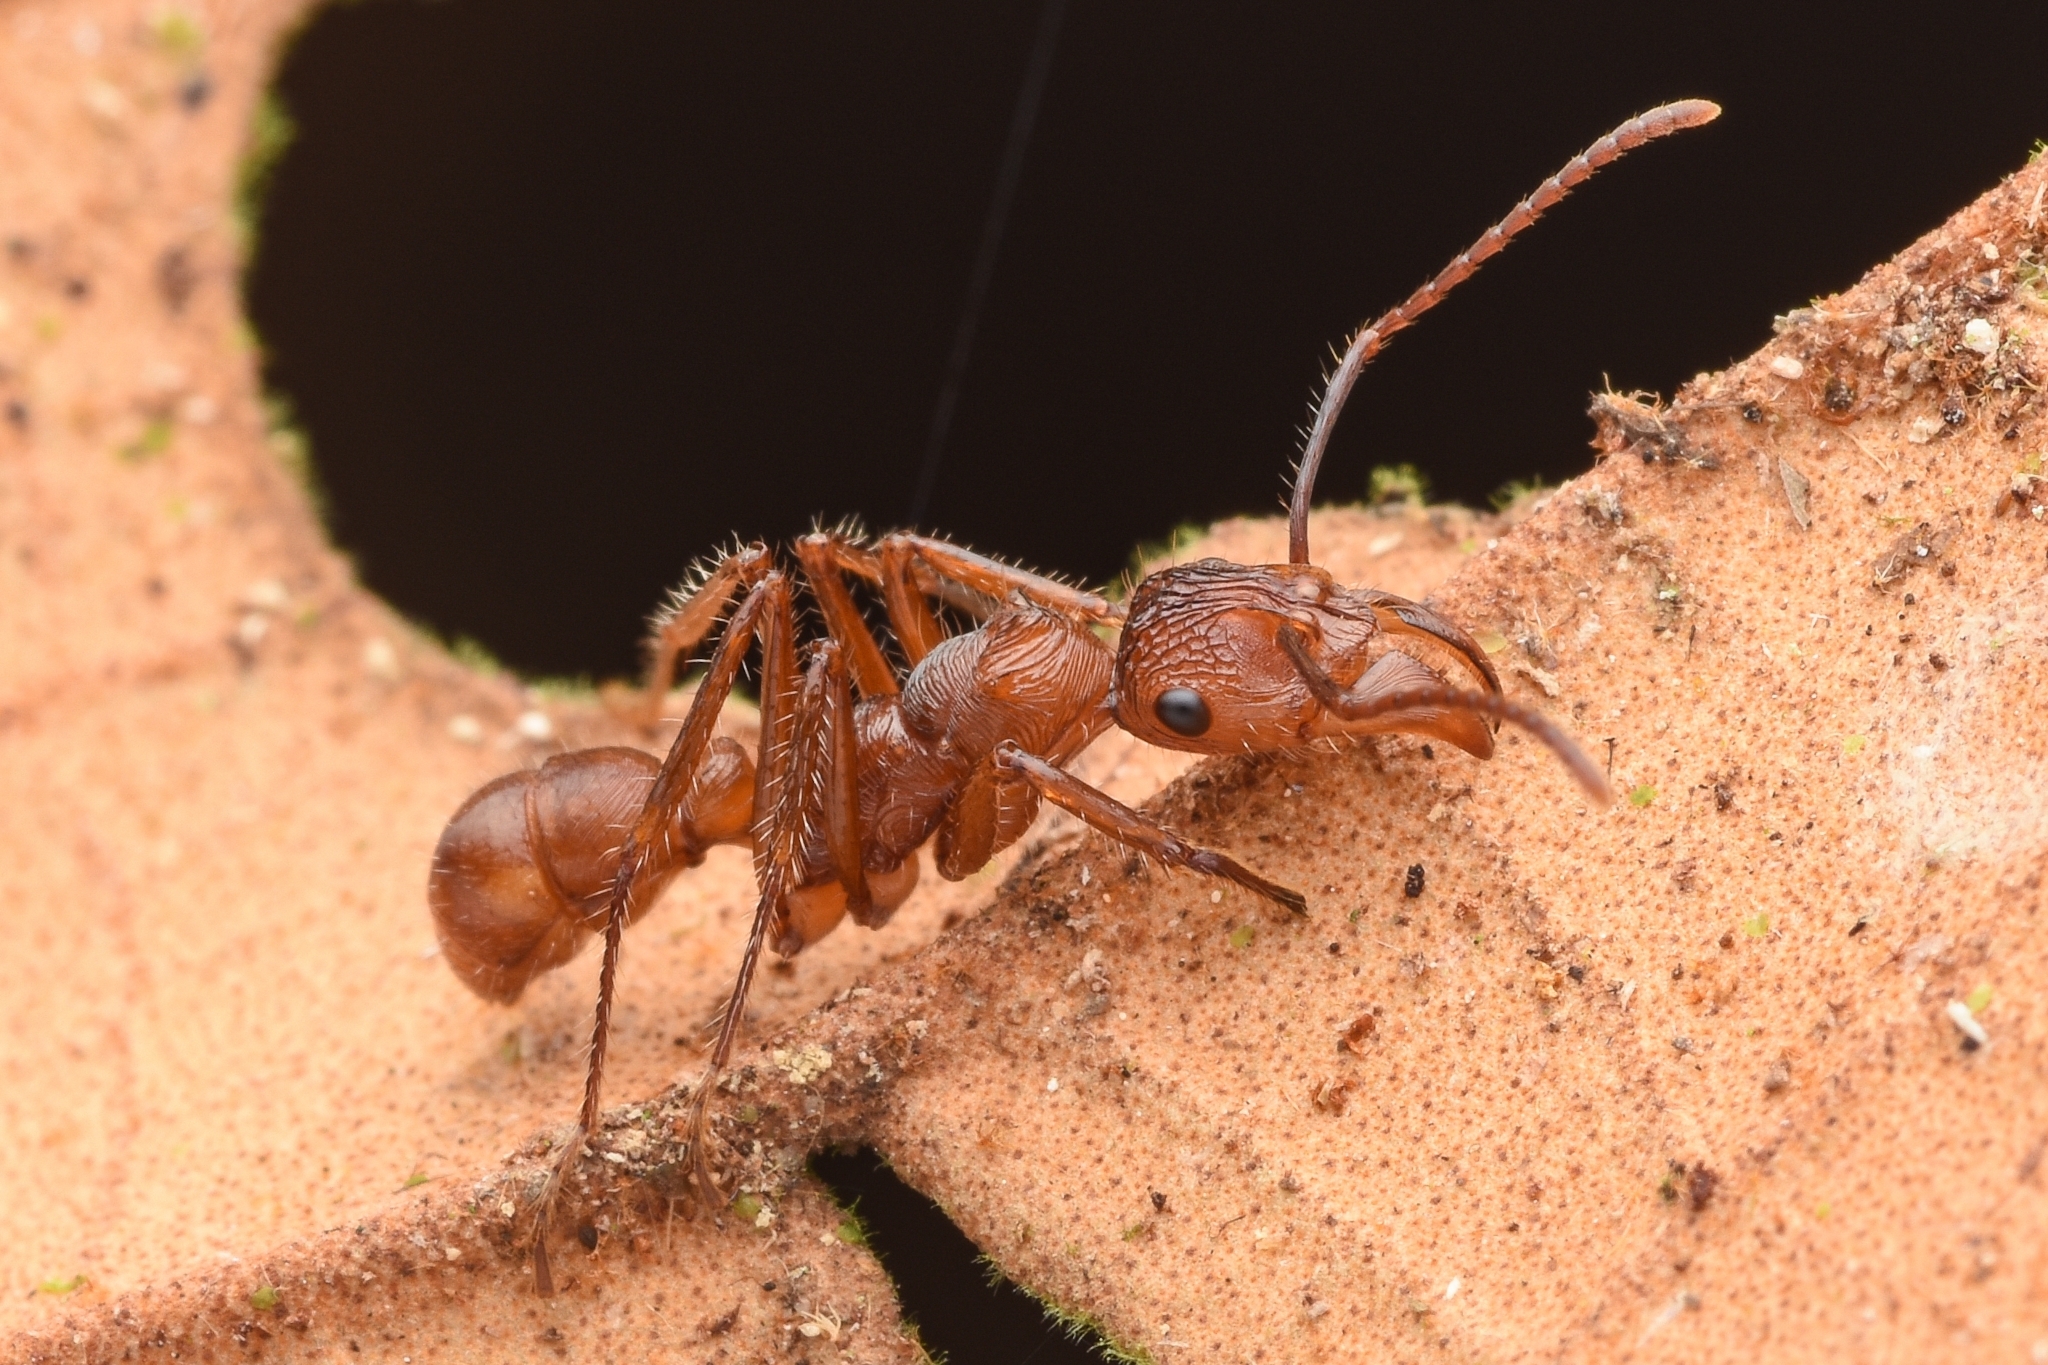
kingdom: Animalia
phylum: Arthropoda
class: Insecta
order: Hymenoptera
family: Formicidae
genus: Ectatomma
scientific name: Ectatomma tuberculatum
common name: Ant
